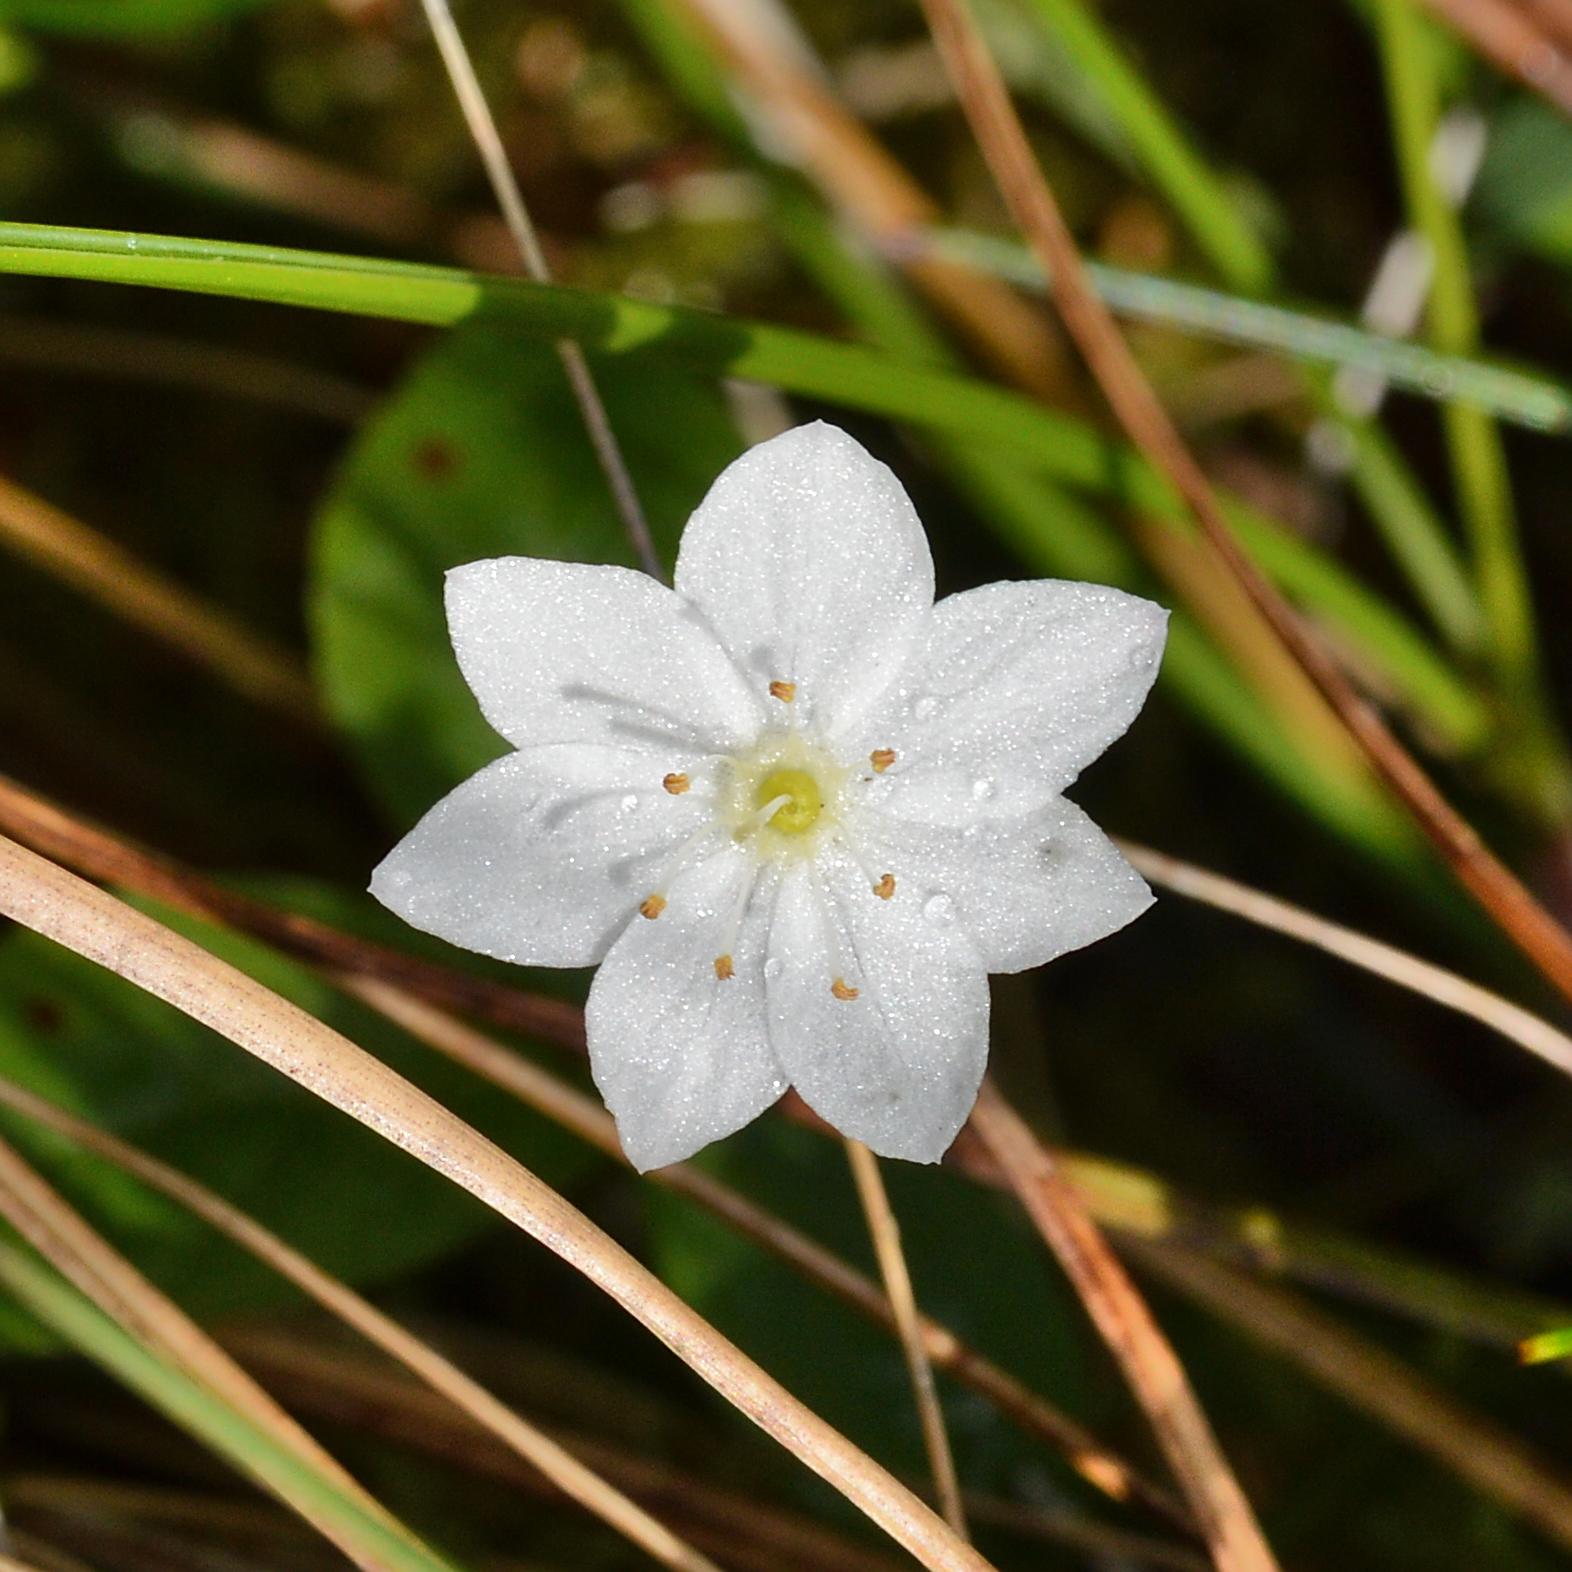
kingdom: Plantae
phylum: Tracheophyta
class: Magnoliopsida
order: Ericales
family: Primulaceae
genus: Lysimachia
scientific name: Lysimachia europaea
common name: Arctic starflower
